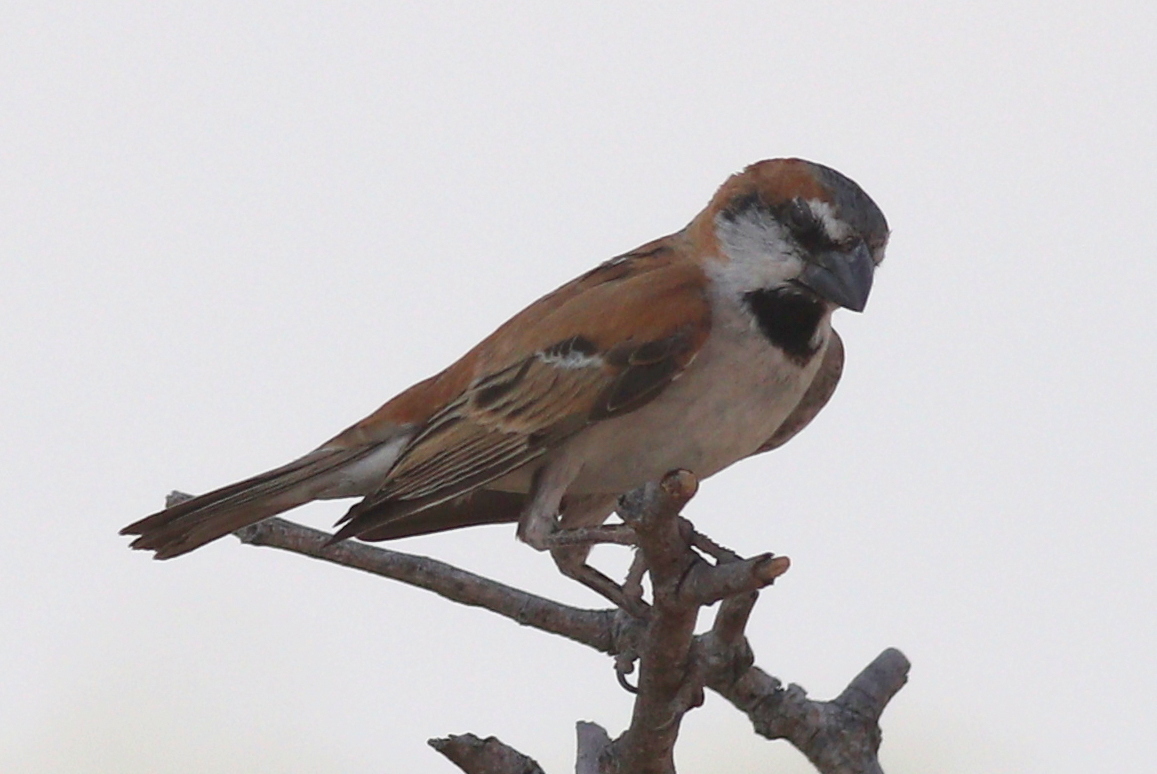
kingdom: Animalia
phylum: Chordata
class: Aves
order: Passeriformes
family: Passeridae
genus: Passer
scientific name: Passer motitensis
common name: Great sparrow
